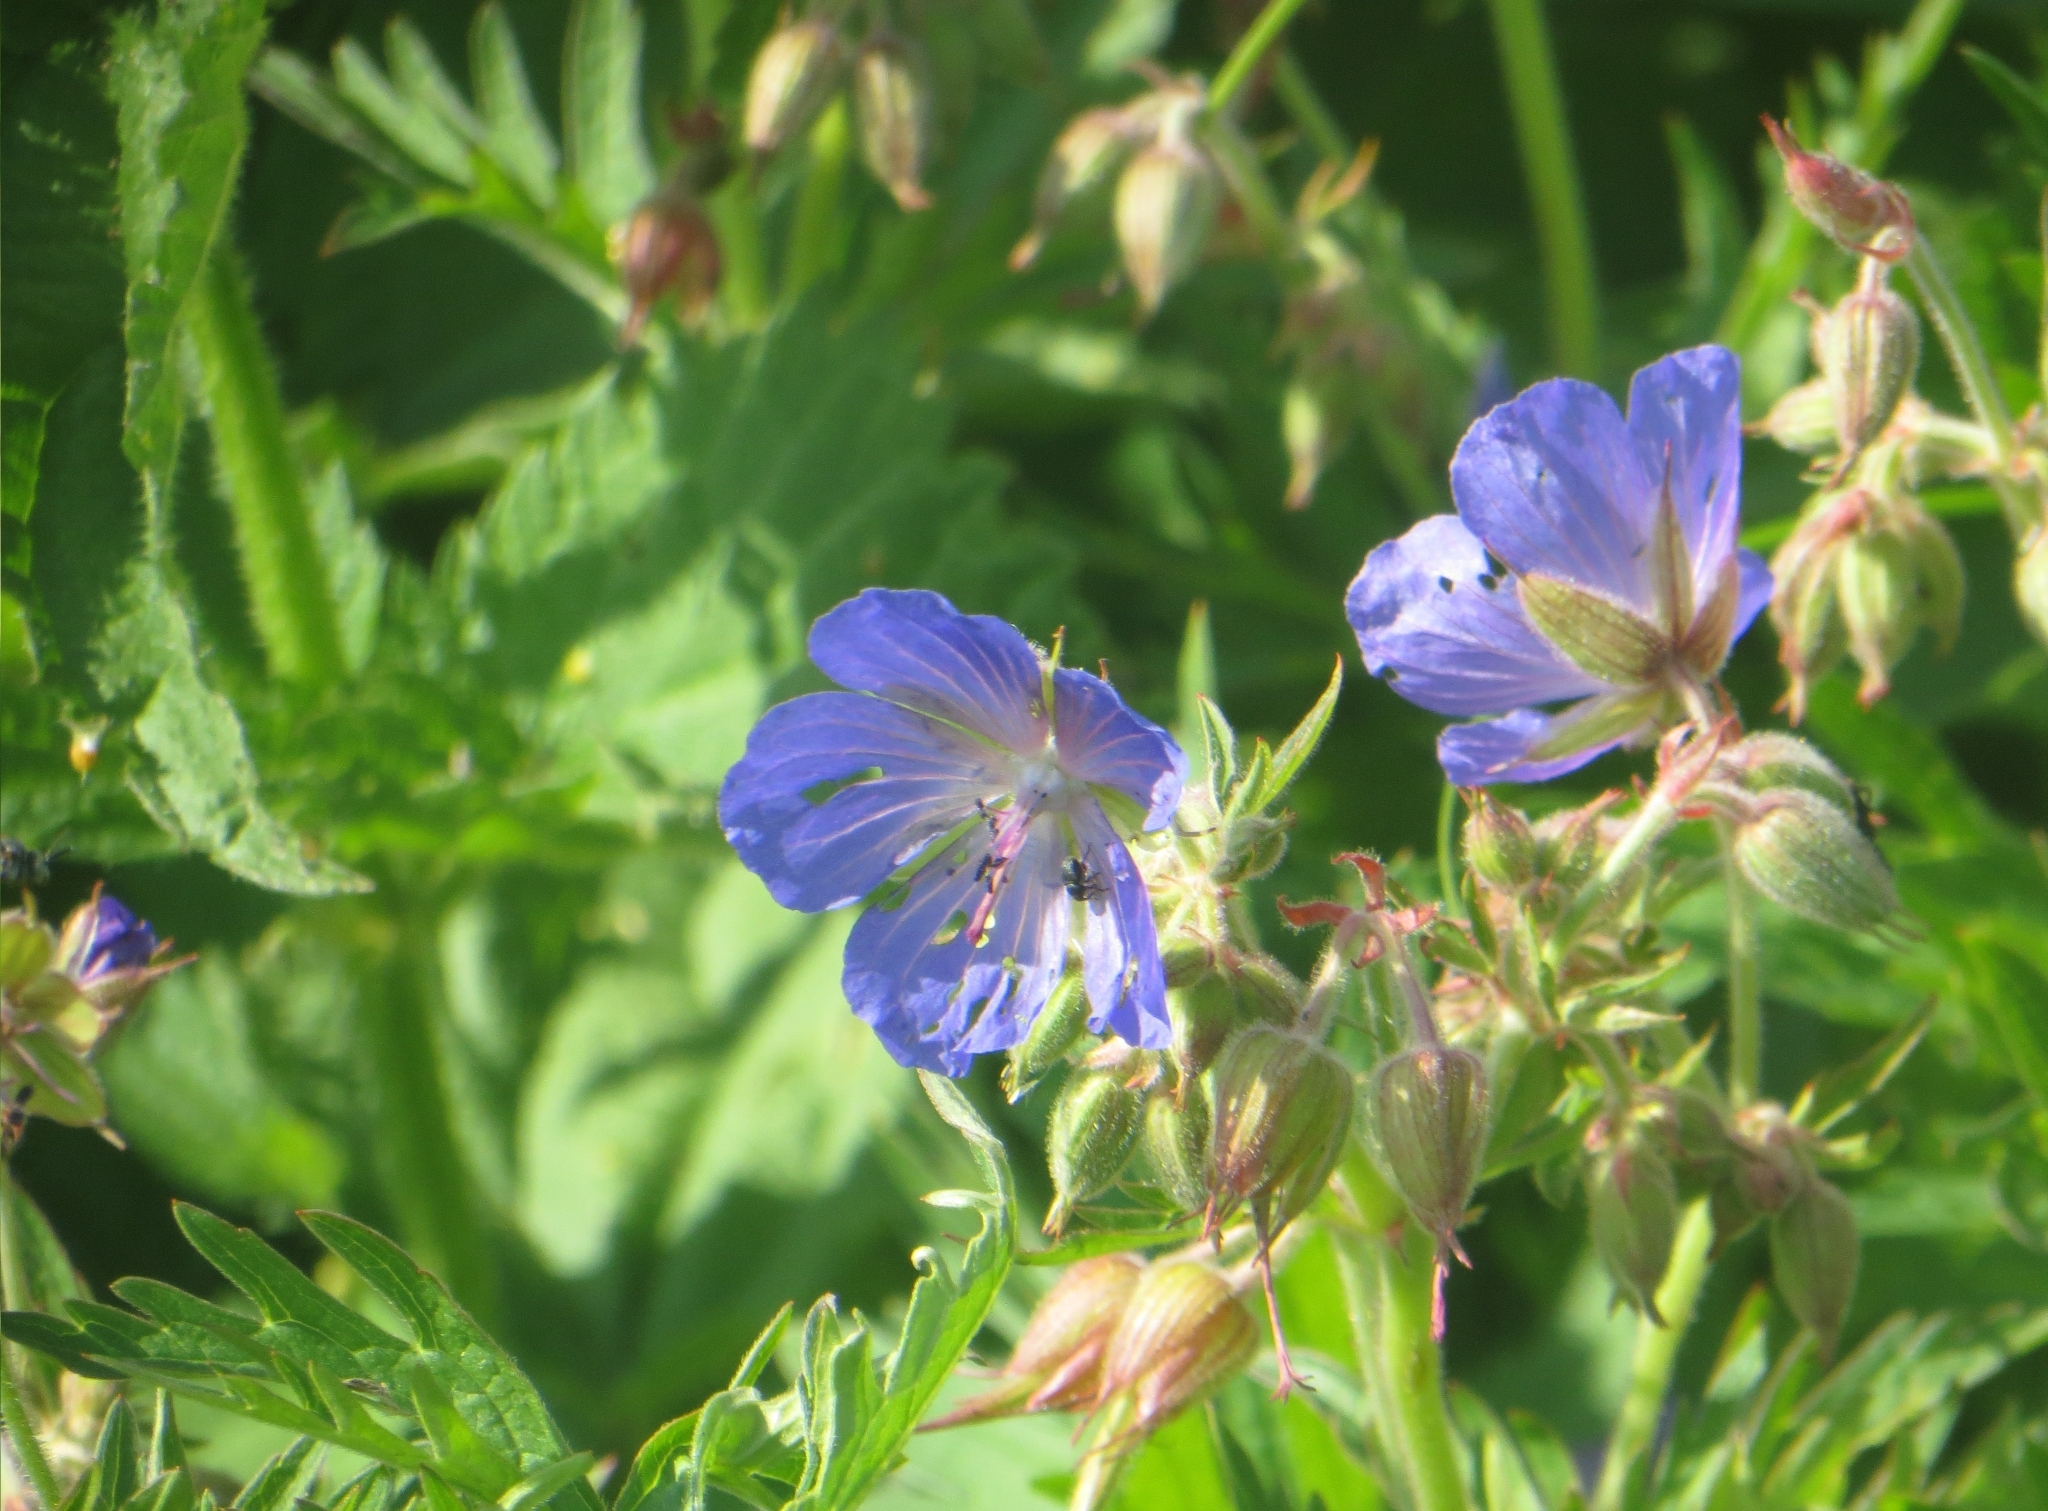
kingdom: Plantae
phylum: Tracheophyta
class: Magnoliopsida
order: Geraniales
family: Geraniaceae
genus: Geranium
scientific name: Geranium pratense
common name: Meadow crane's-bill
